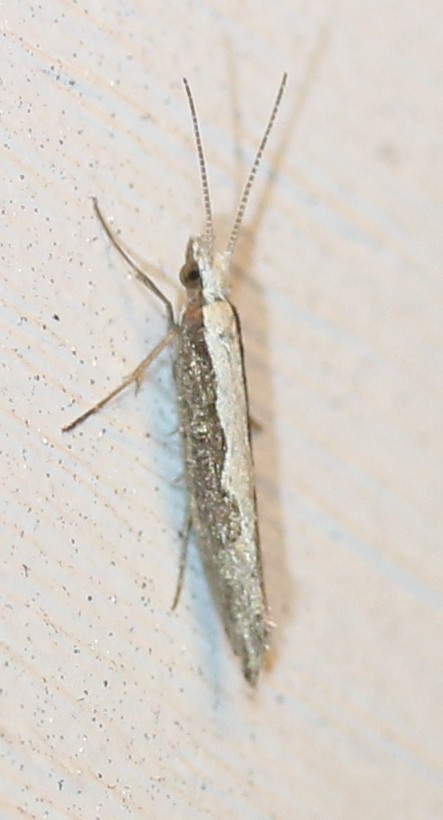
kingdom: Animalia
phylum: Arthropoda
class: Insecta
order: Lepidoptera
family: Plutellidae
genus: Plutella
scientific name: Plutella xylostella
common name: Diamond-back moth
